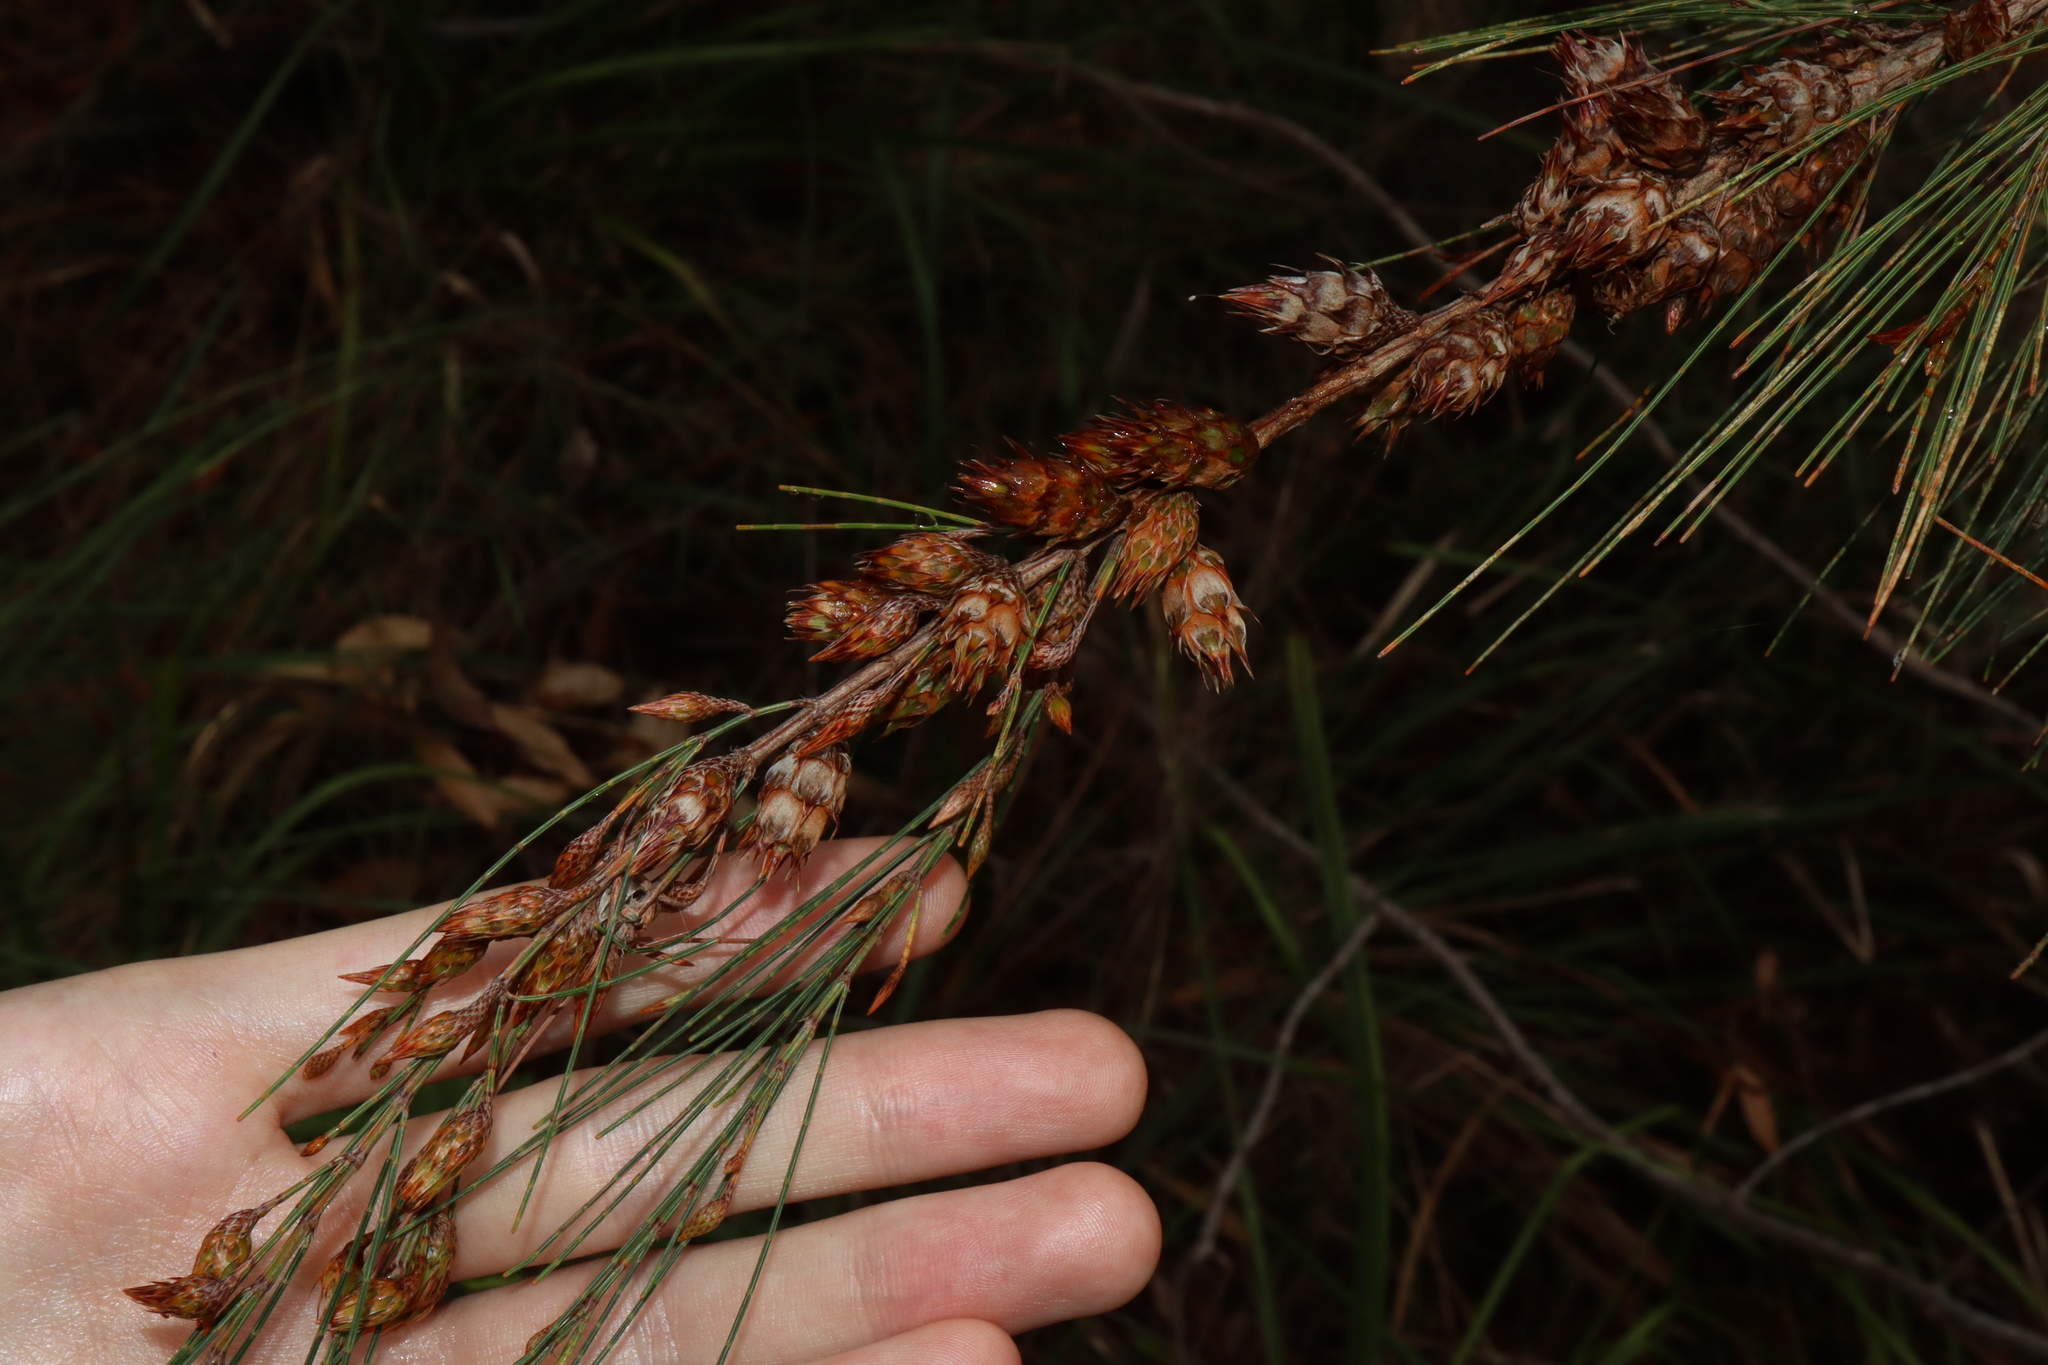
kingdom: Animalia
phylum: Arthropoda
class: Insecta
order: Hemiptera
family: Eriococcidae
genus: Cylindrococcus
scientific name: Cylindrococcus spiniferus
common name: Casuarina gall
